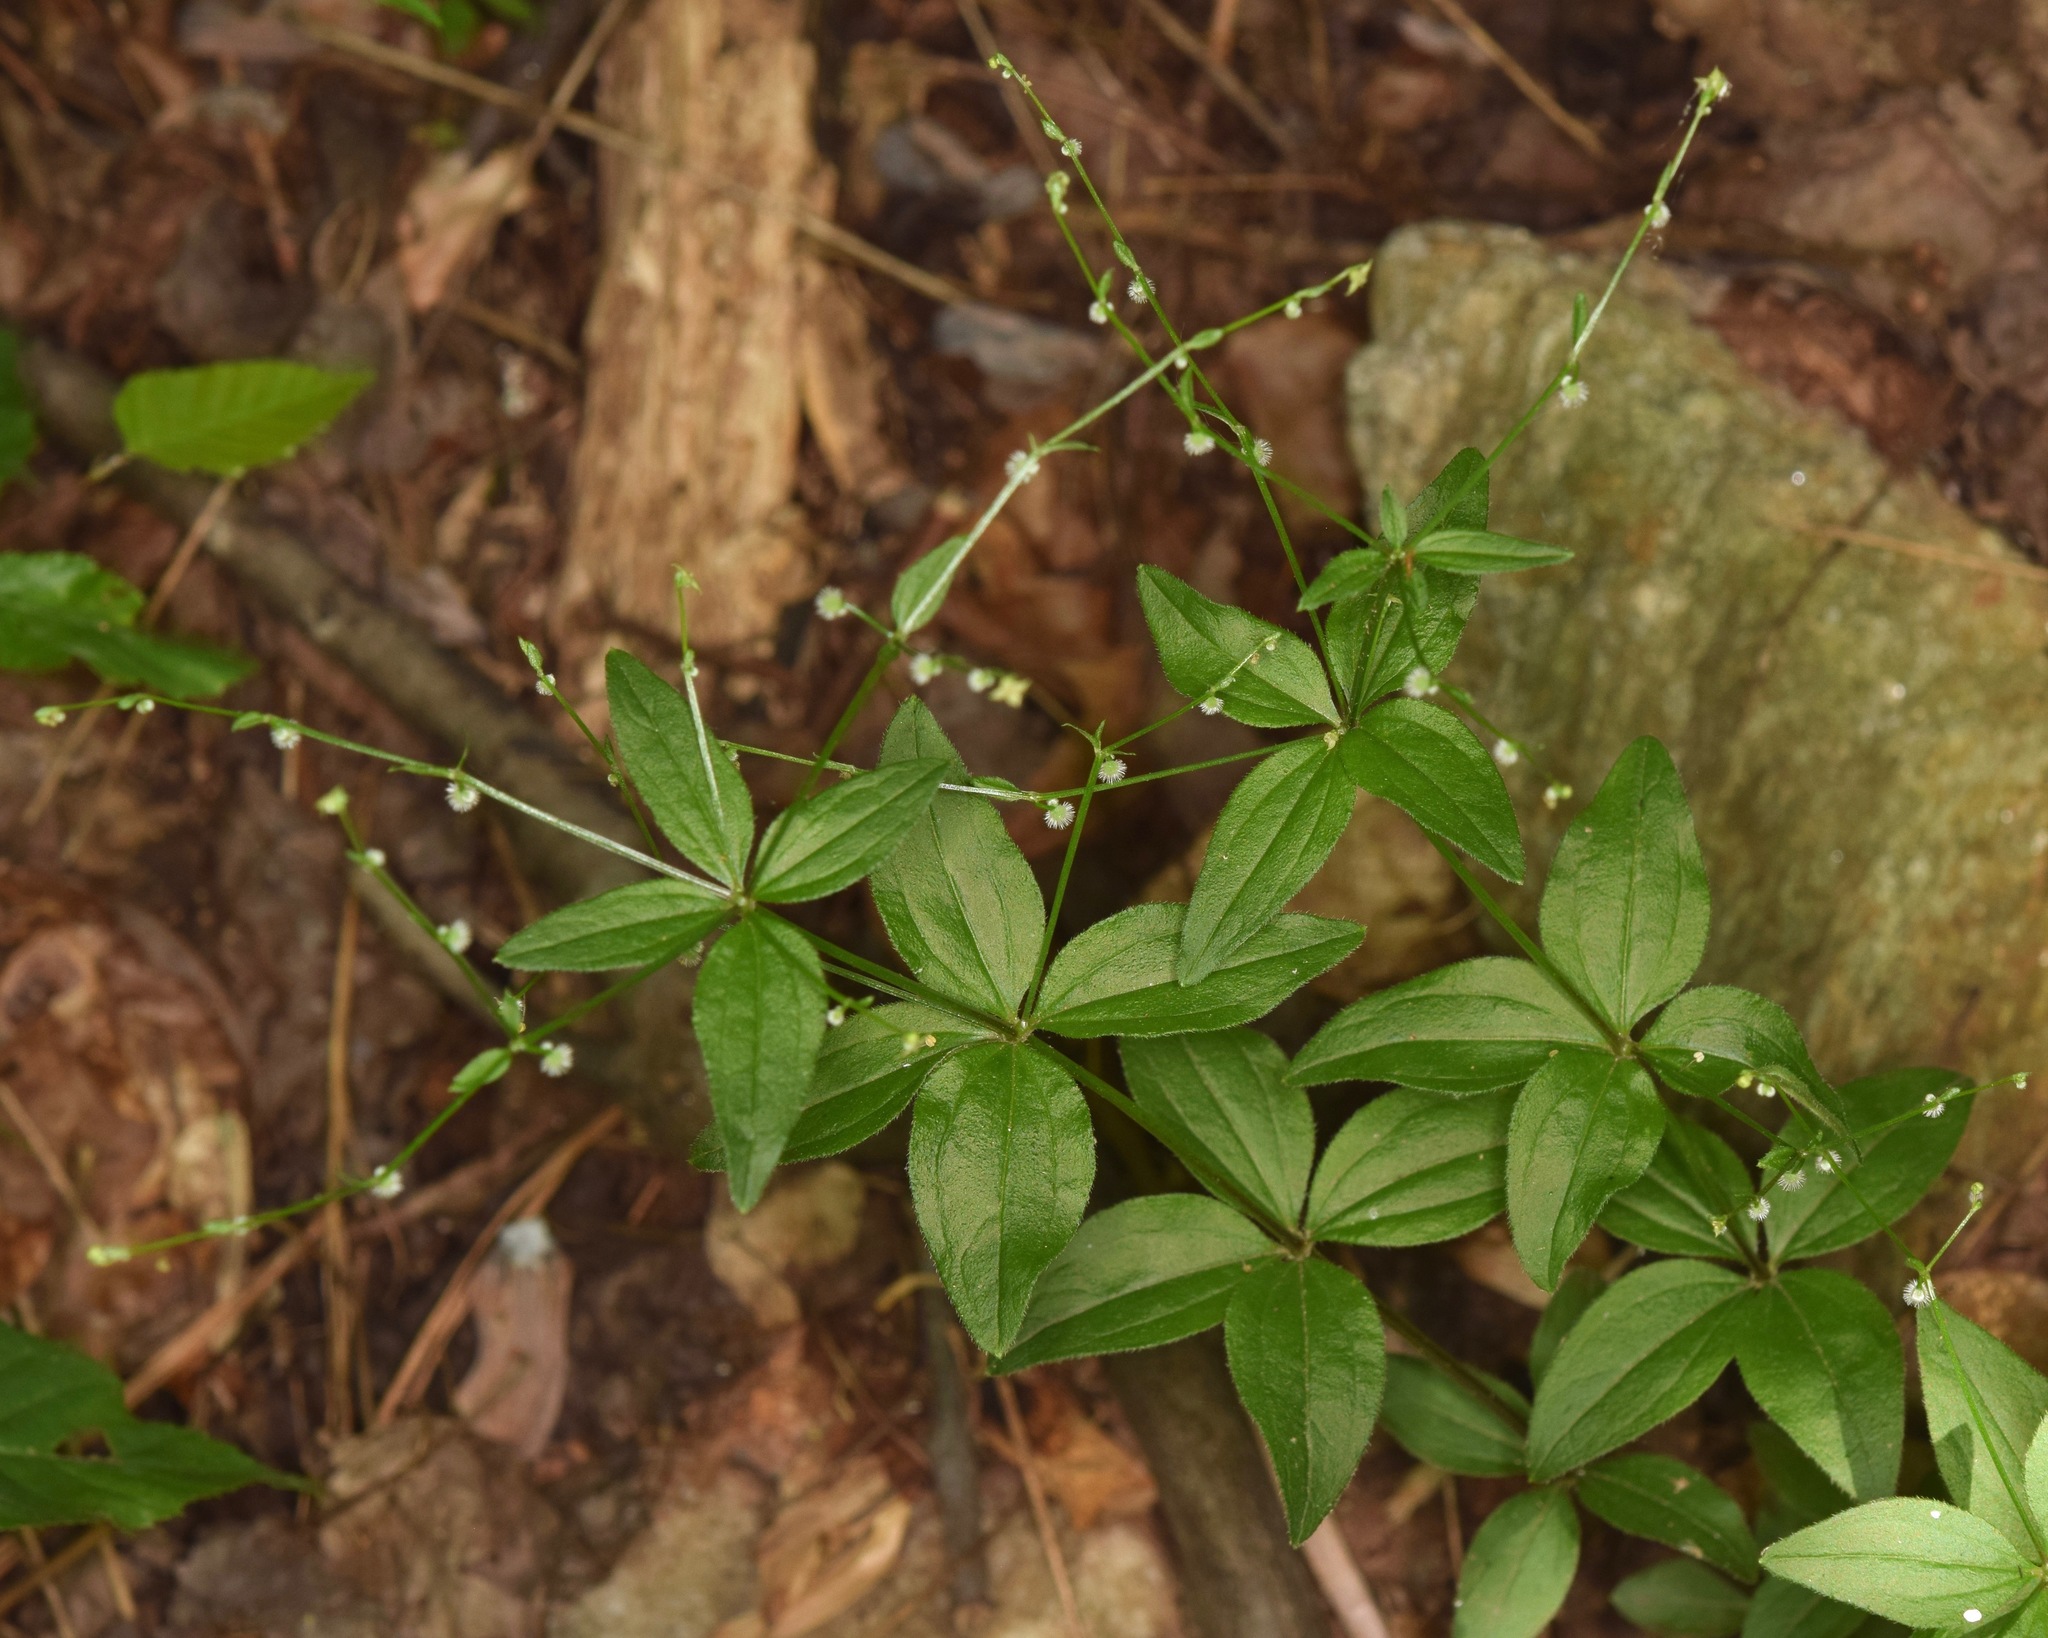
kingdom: Plantae
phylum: Tracheophyta
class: Magnoliopsida
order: Gentianales
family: Rubiaceae
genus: Galium
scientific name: Galium circaezans
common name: Forest bedstraw
